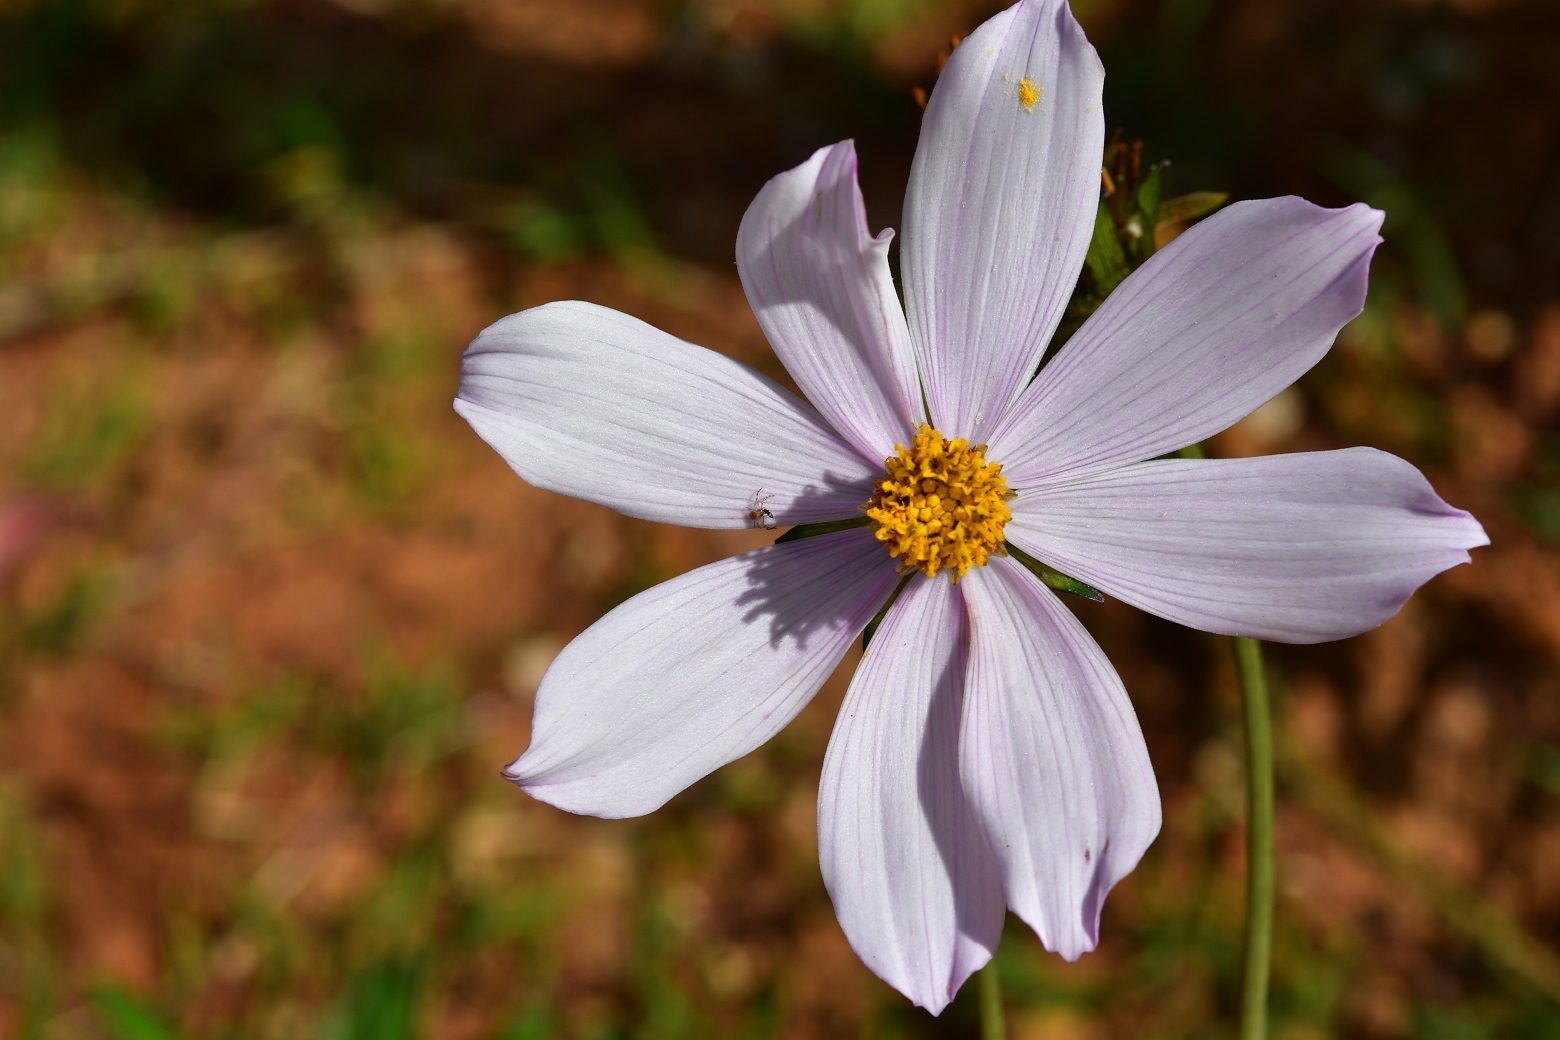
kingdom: Plantae
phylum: Tracheophyta
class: Magnoliopsida
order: Asterales
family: Asteraceae
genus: Cosmos
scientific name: Cosmos diversifolius
